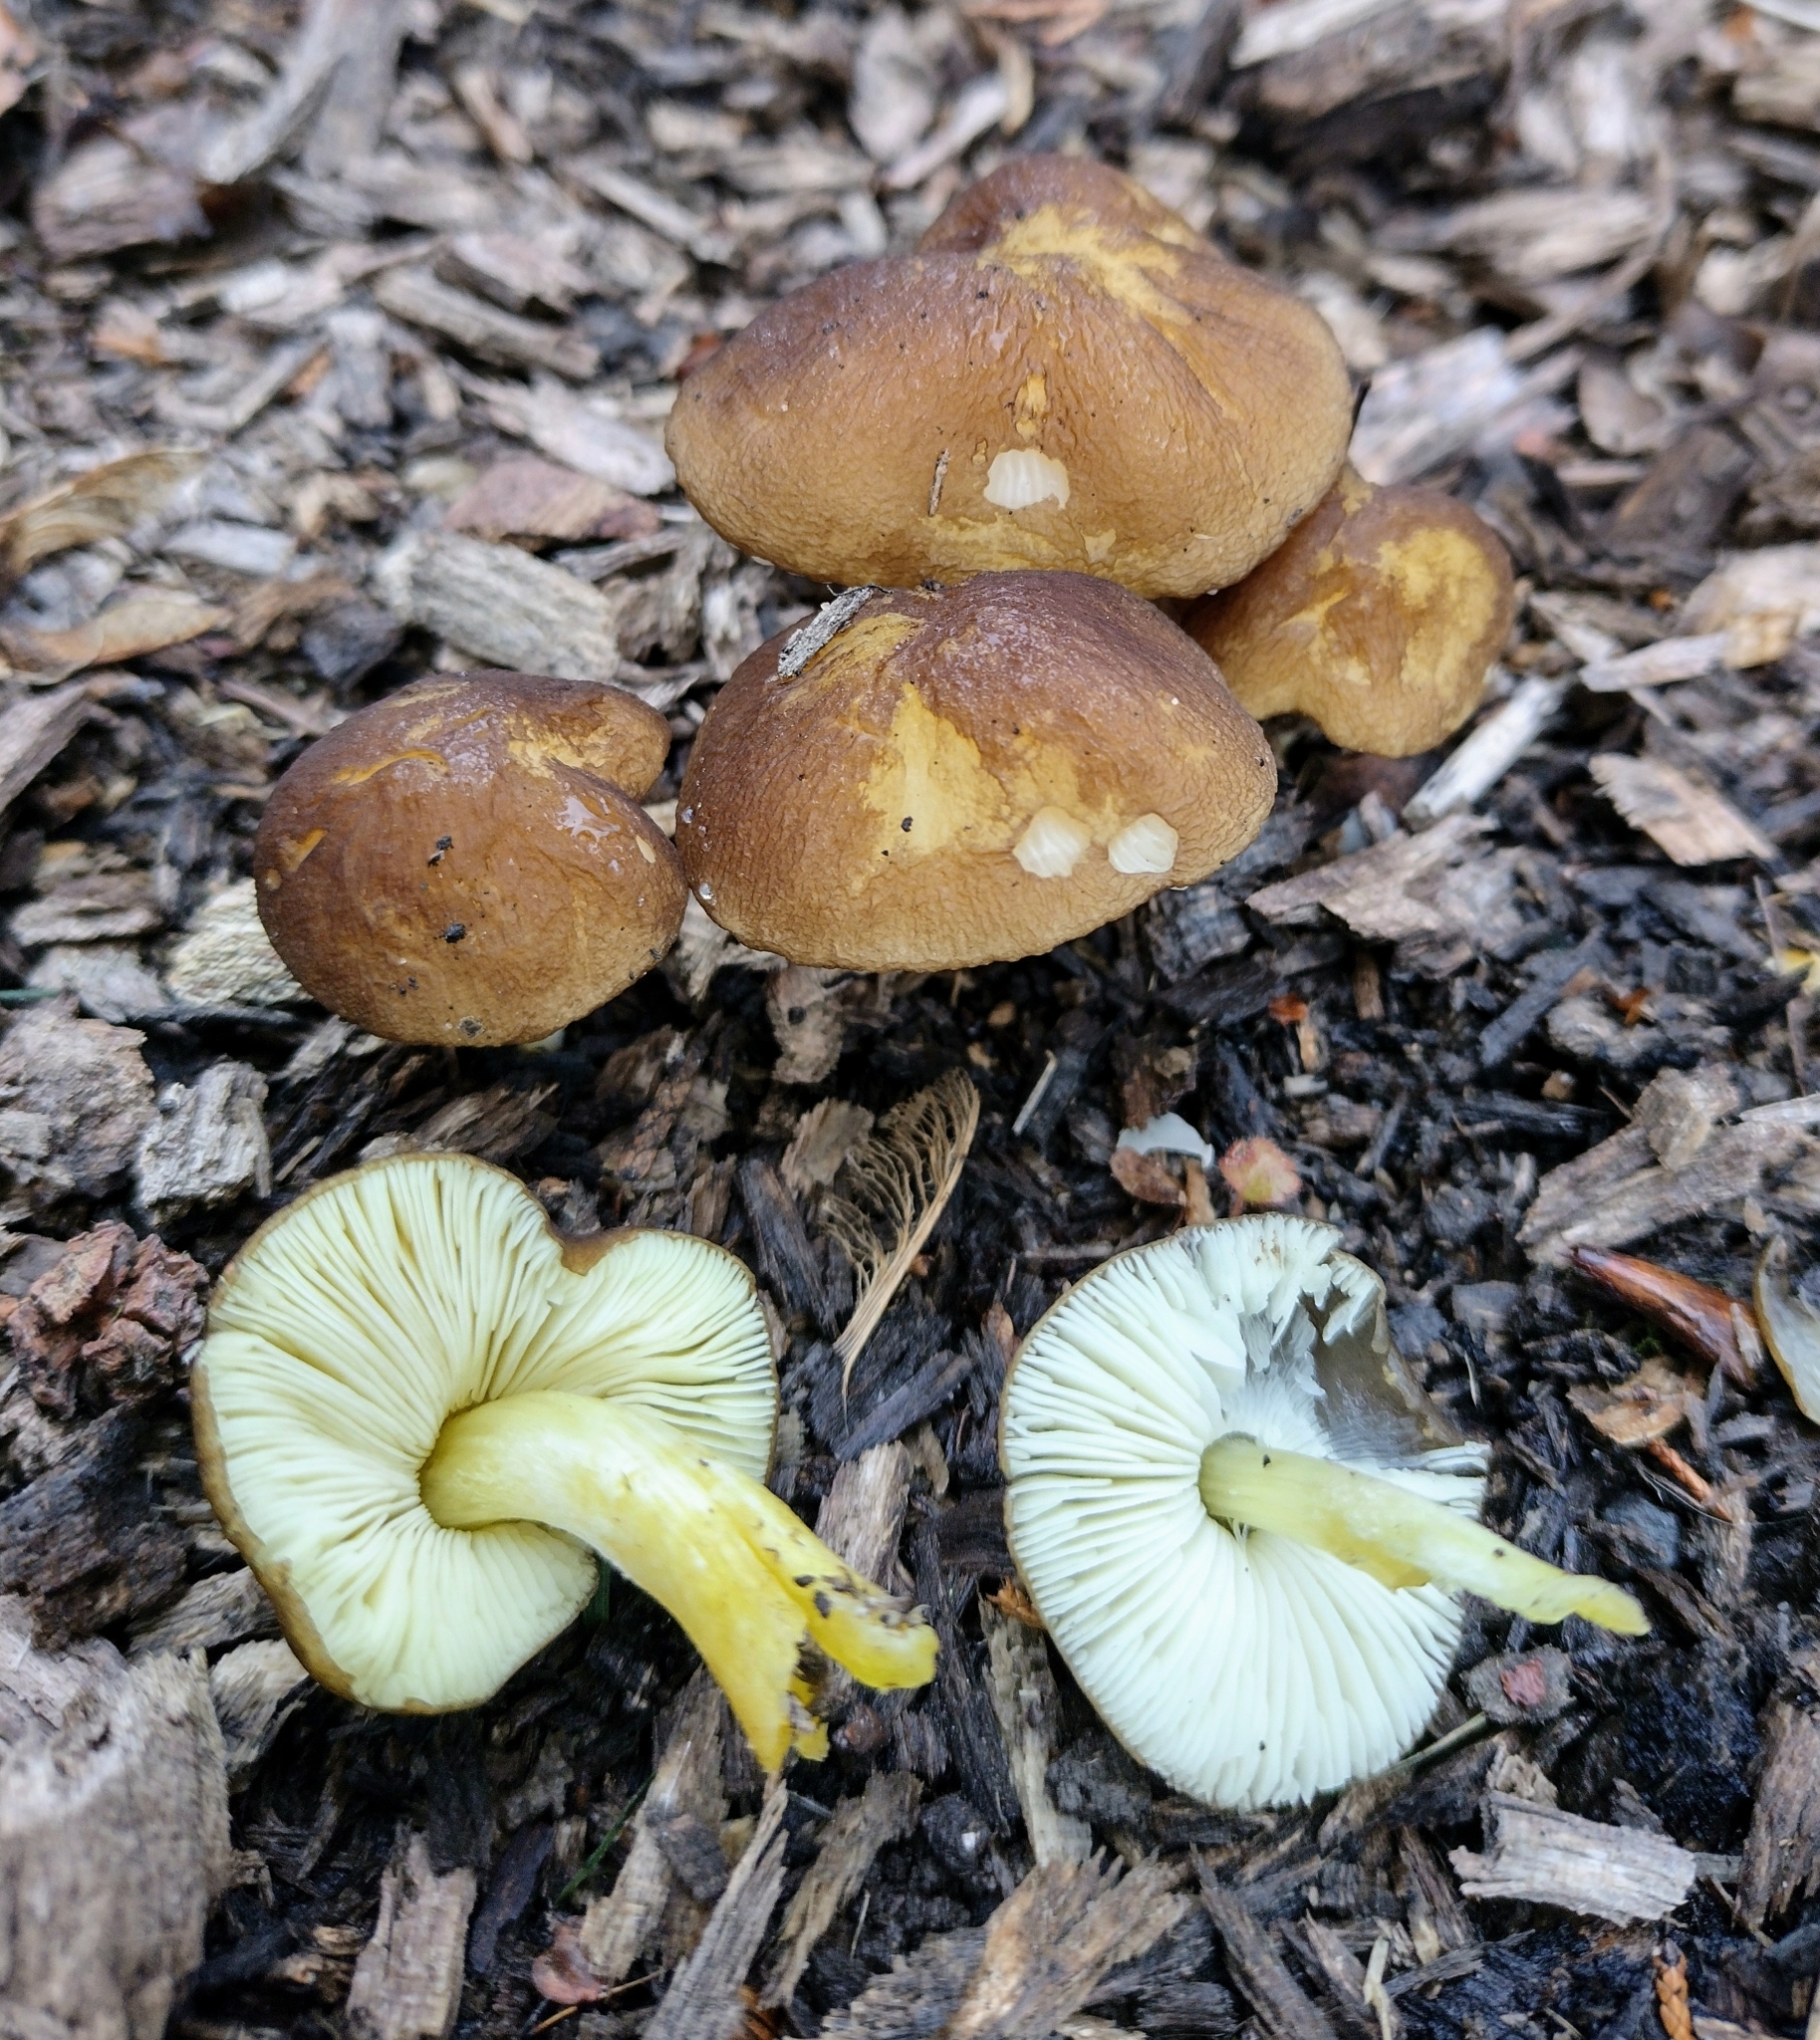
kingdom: Fungi
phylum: Basidiomycota
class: Agaricomycetes
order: Agaricales
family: Pluteaceae
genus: Pluteus
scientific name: Pluteus romellii
